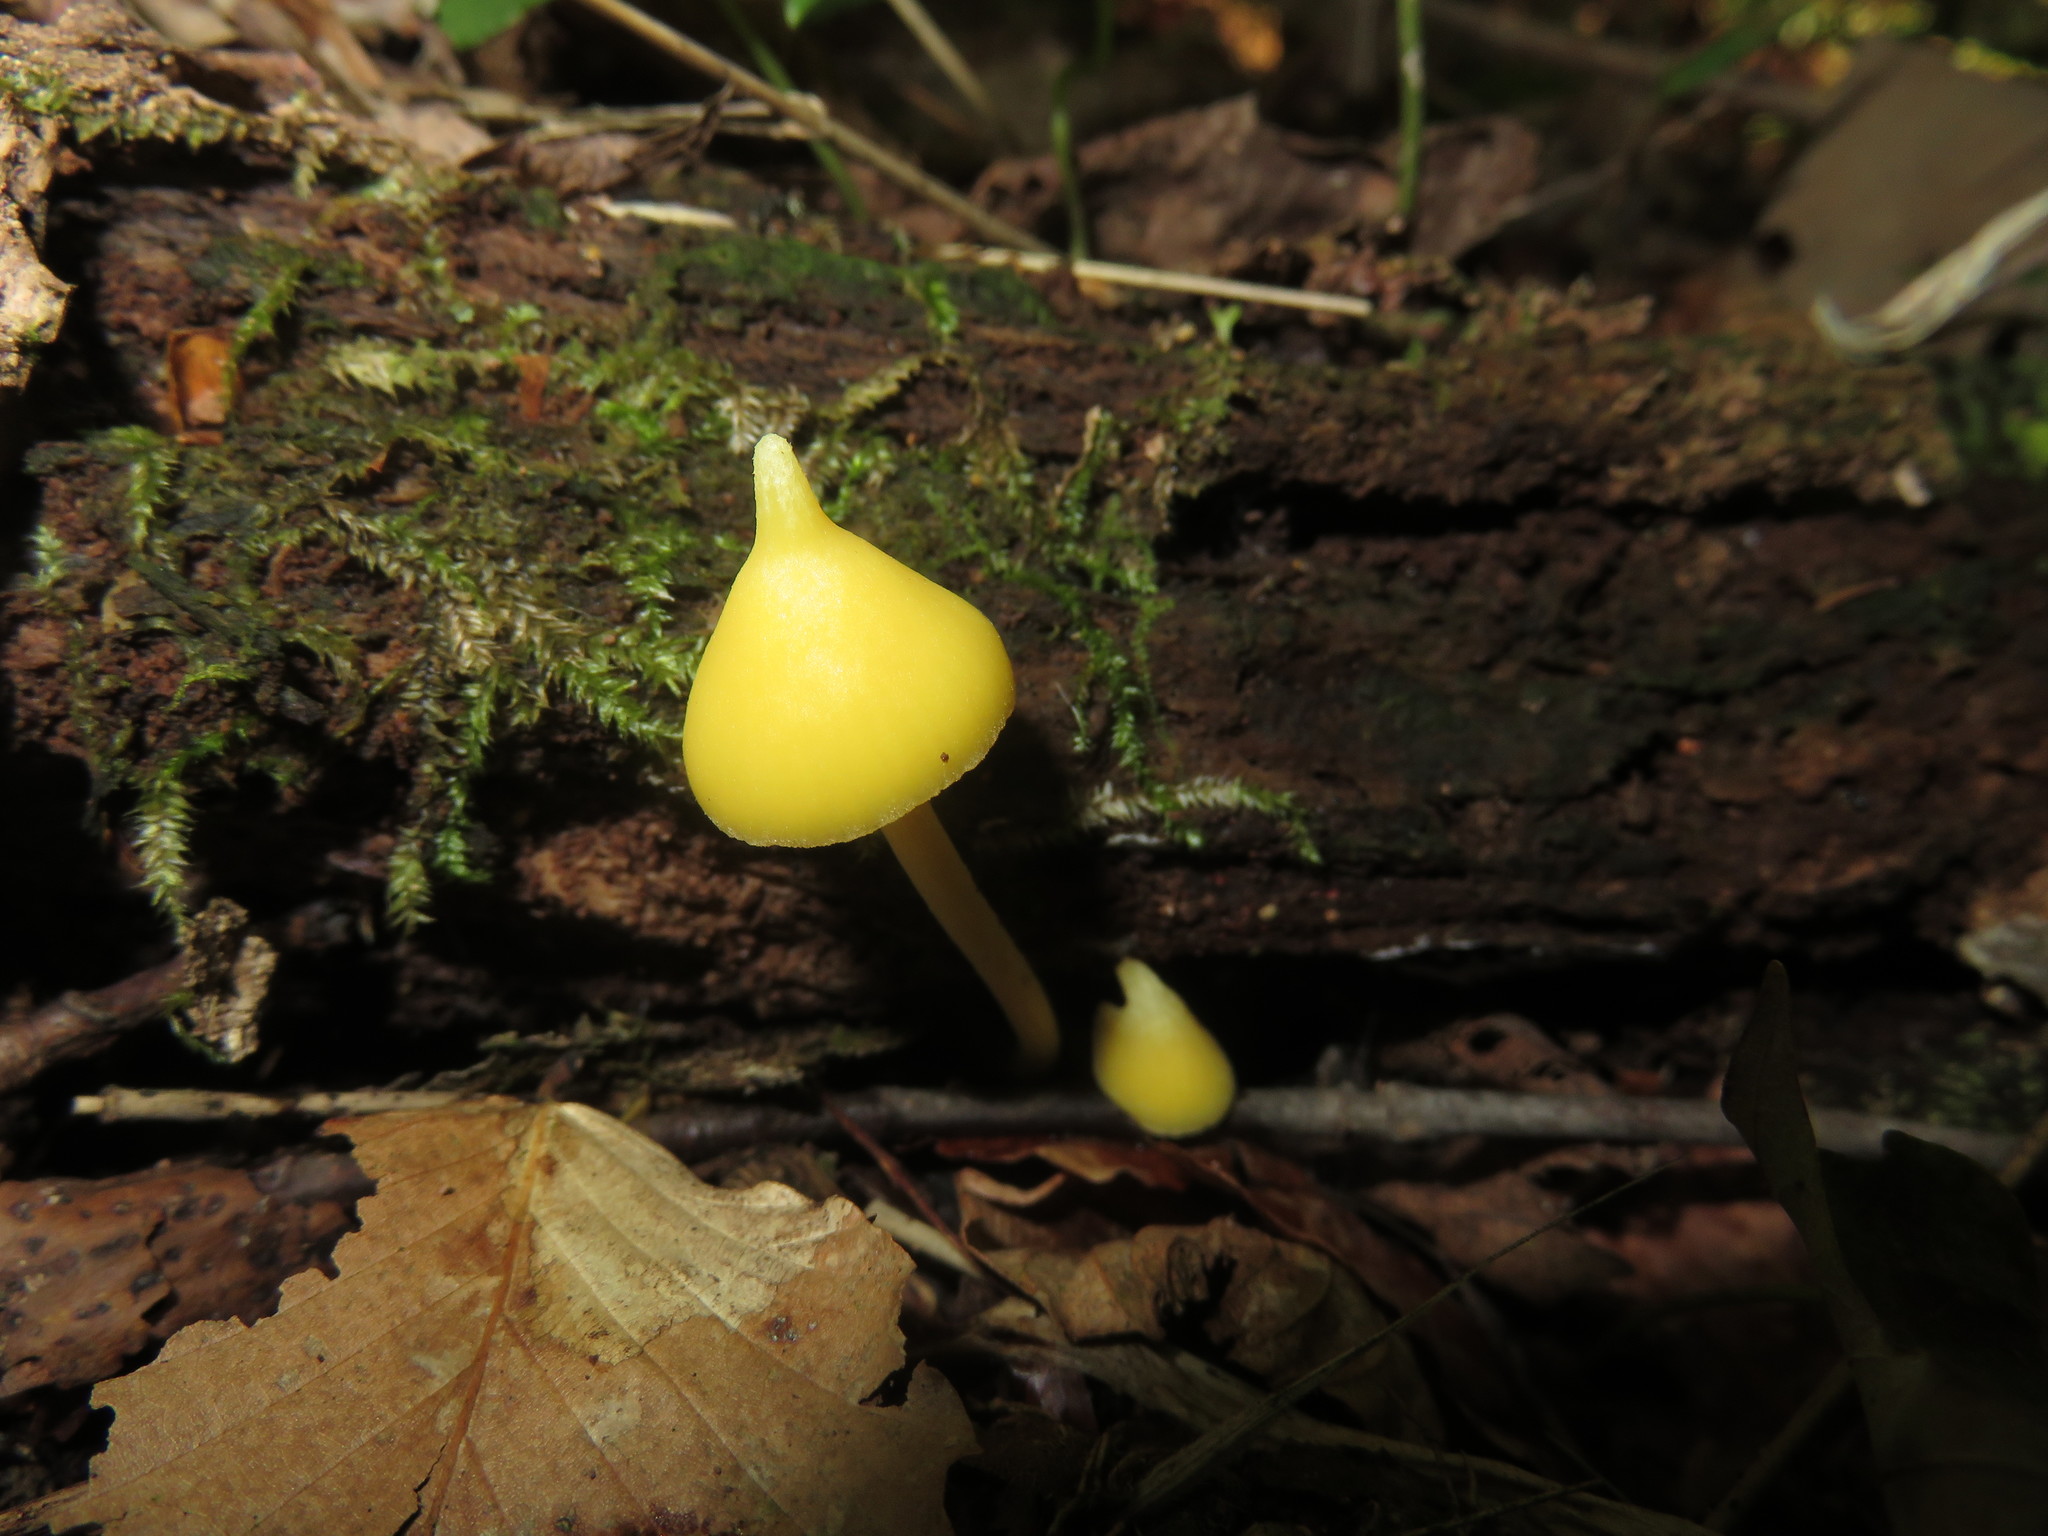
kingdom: Fungi
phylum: Basidiomycota
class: Agaricomycetes
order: Agaricales
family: Entolomataceae
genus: Entoloma
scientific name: Entoloma murrayi
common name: Yellow unicorn entoloma
